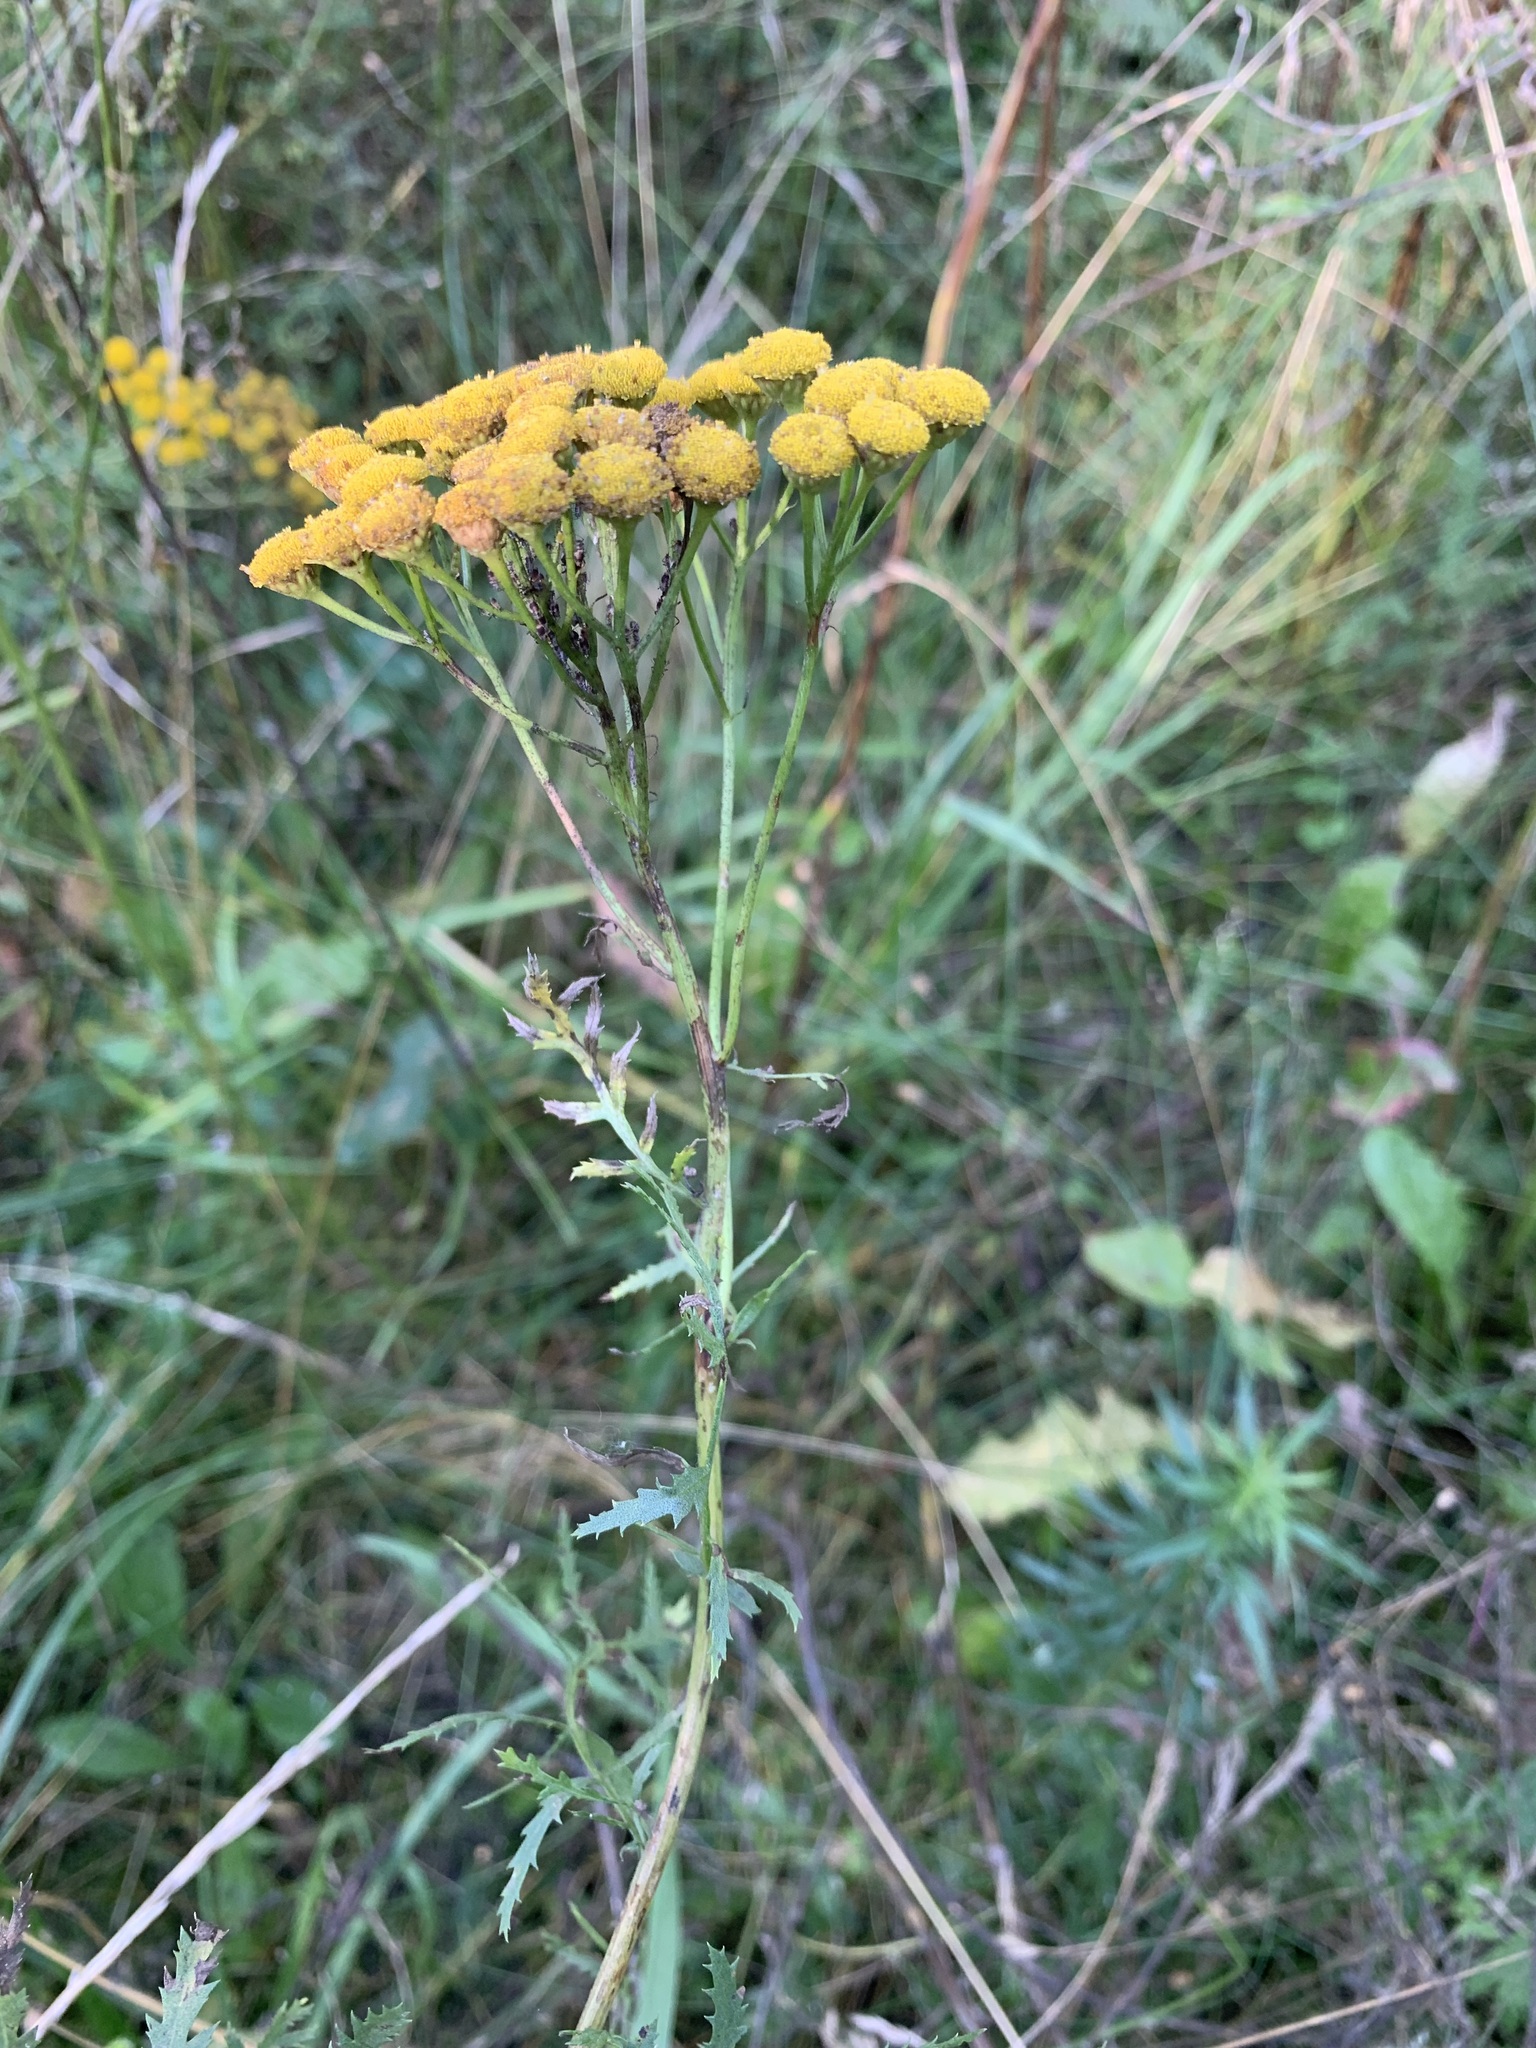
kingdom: Plantae
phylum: Tracheophyta
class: Magnoliopsida
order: Asterales
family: Asteraceae
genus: Tanacetum
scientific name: Tanacetum vulgare
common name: Common tansy
